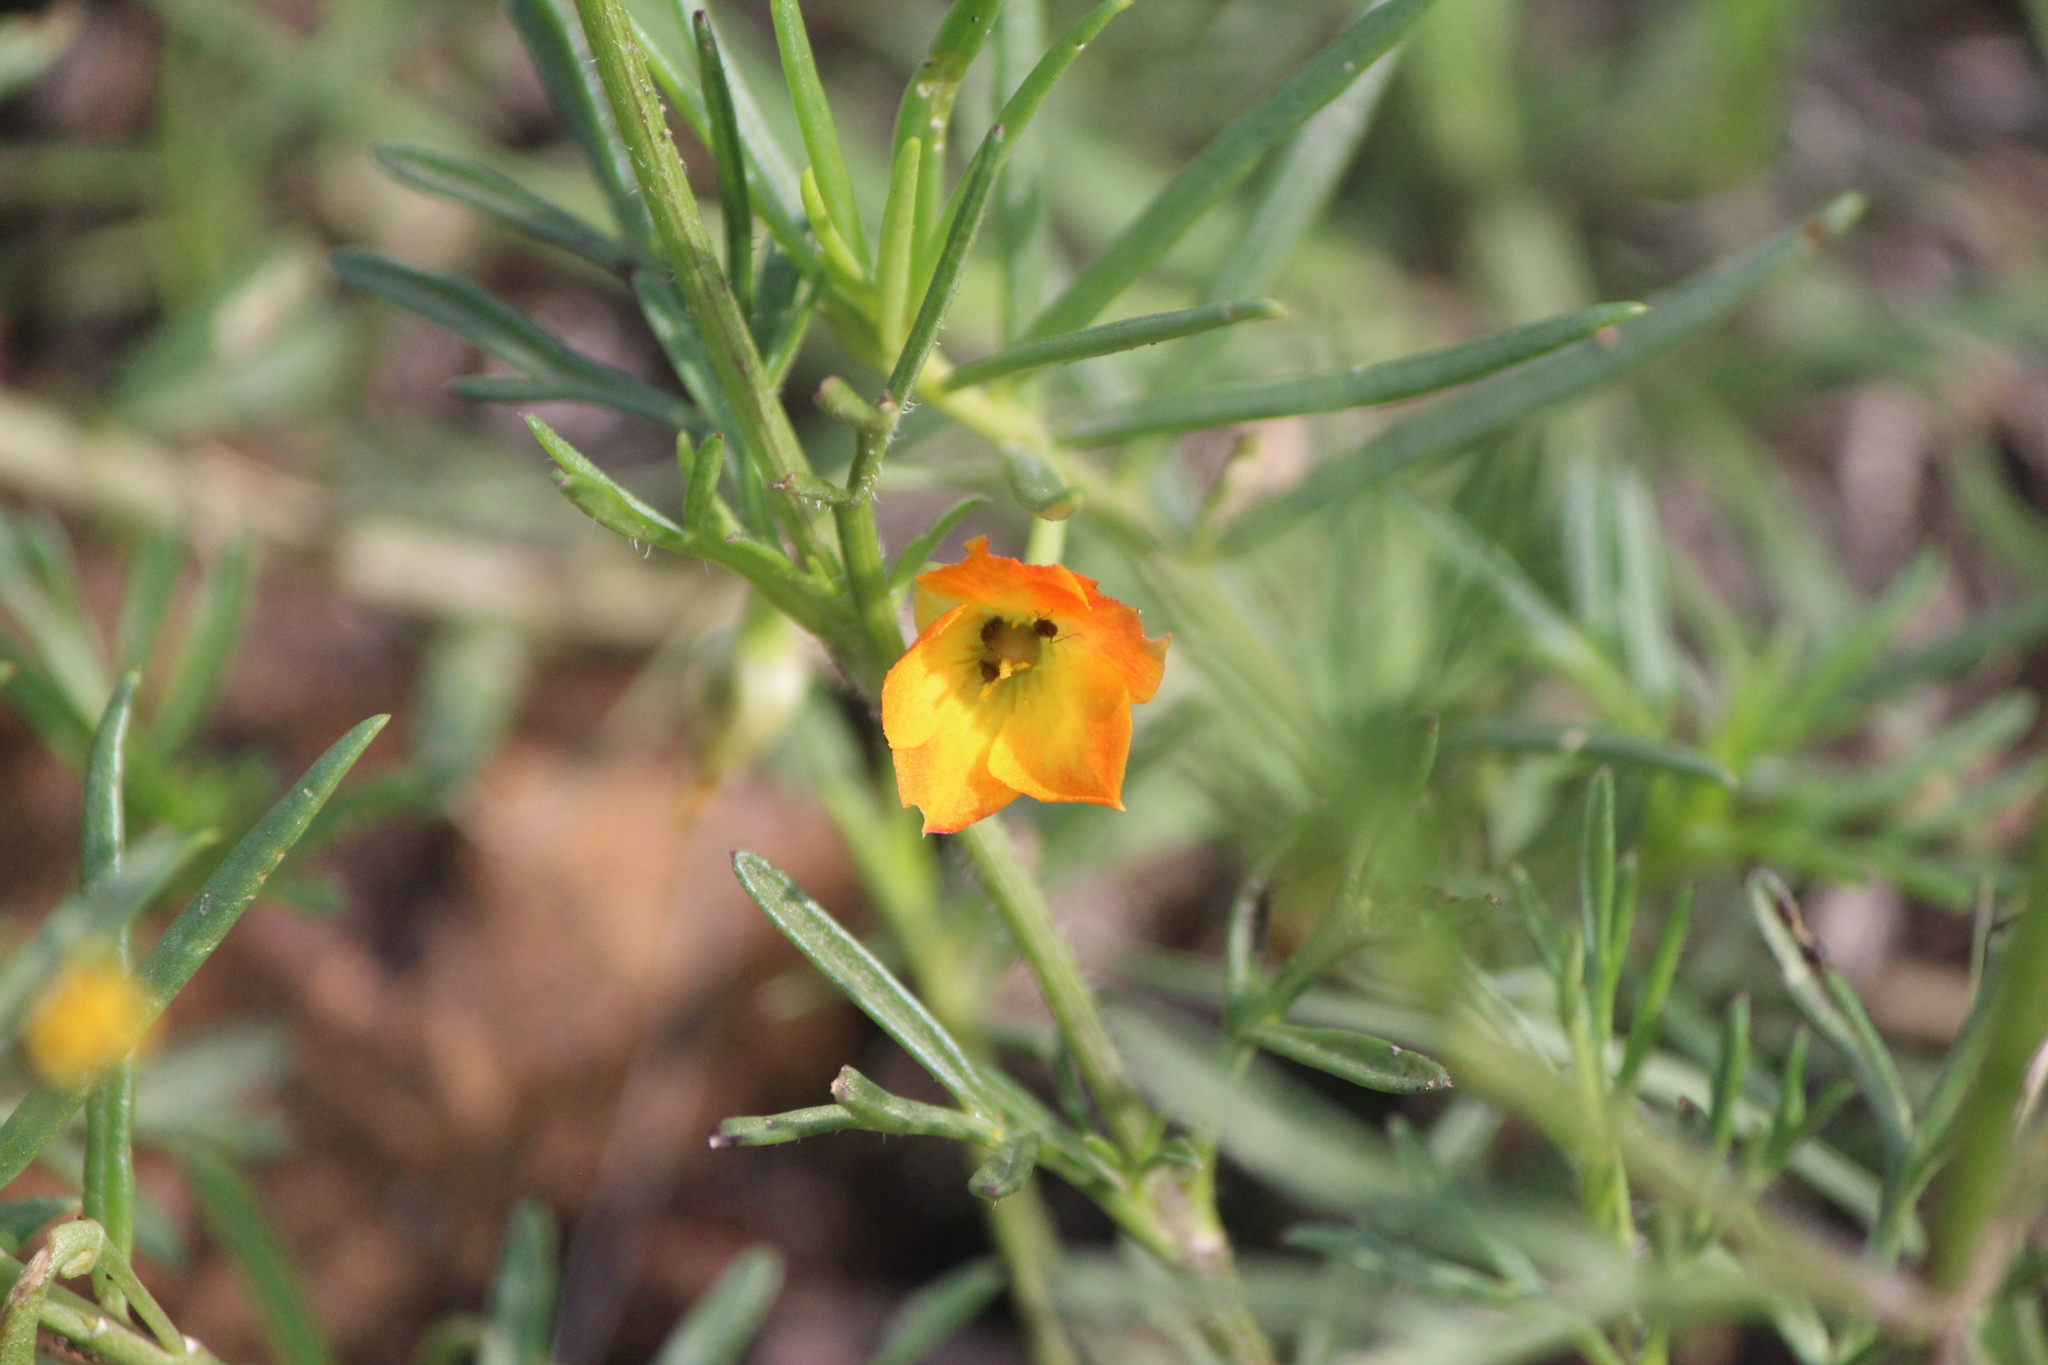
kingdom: Plantae
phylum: Tracheophyta
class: Magnoliopsida
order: Caryophyllales
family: Montiaceae
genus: Phemeranthus
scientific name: Phemeranthus aurantiacus
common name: Orange fameflower
